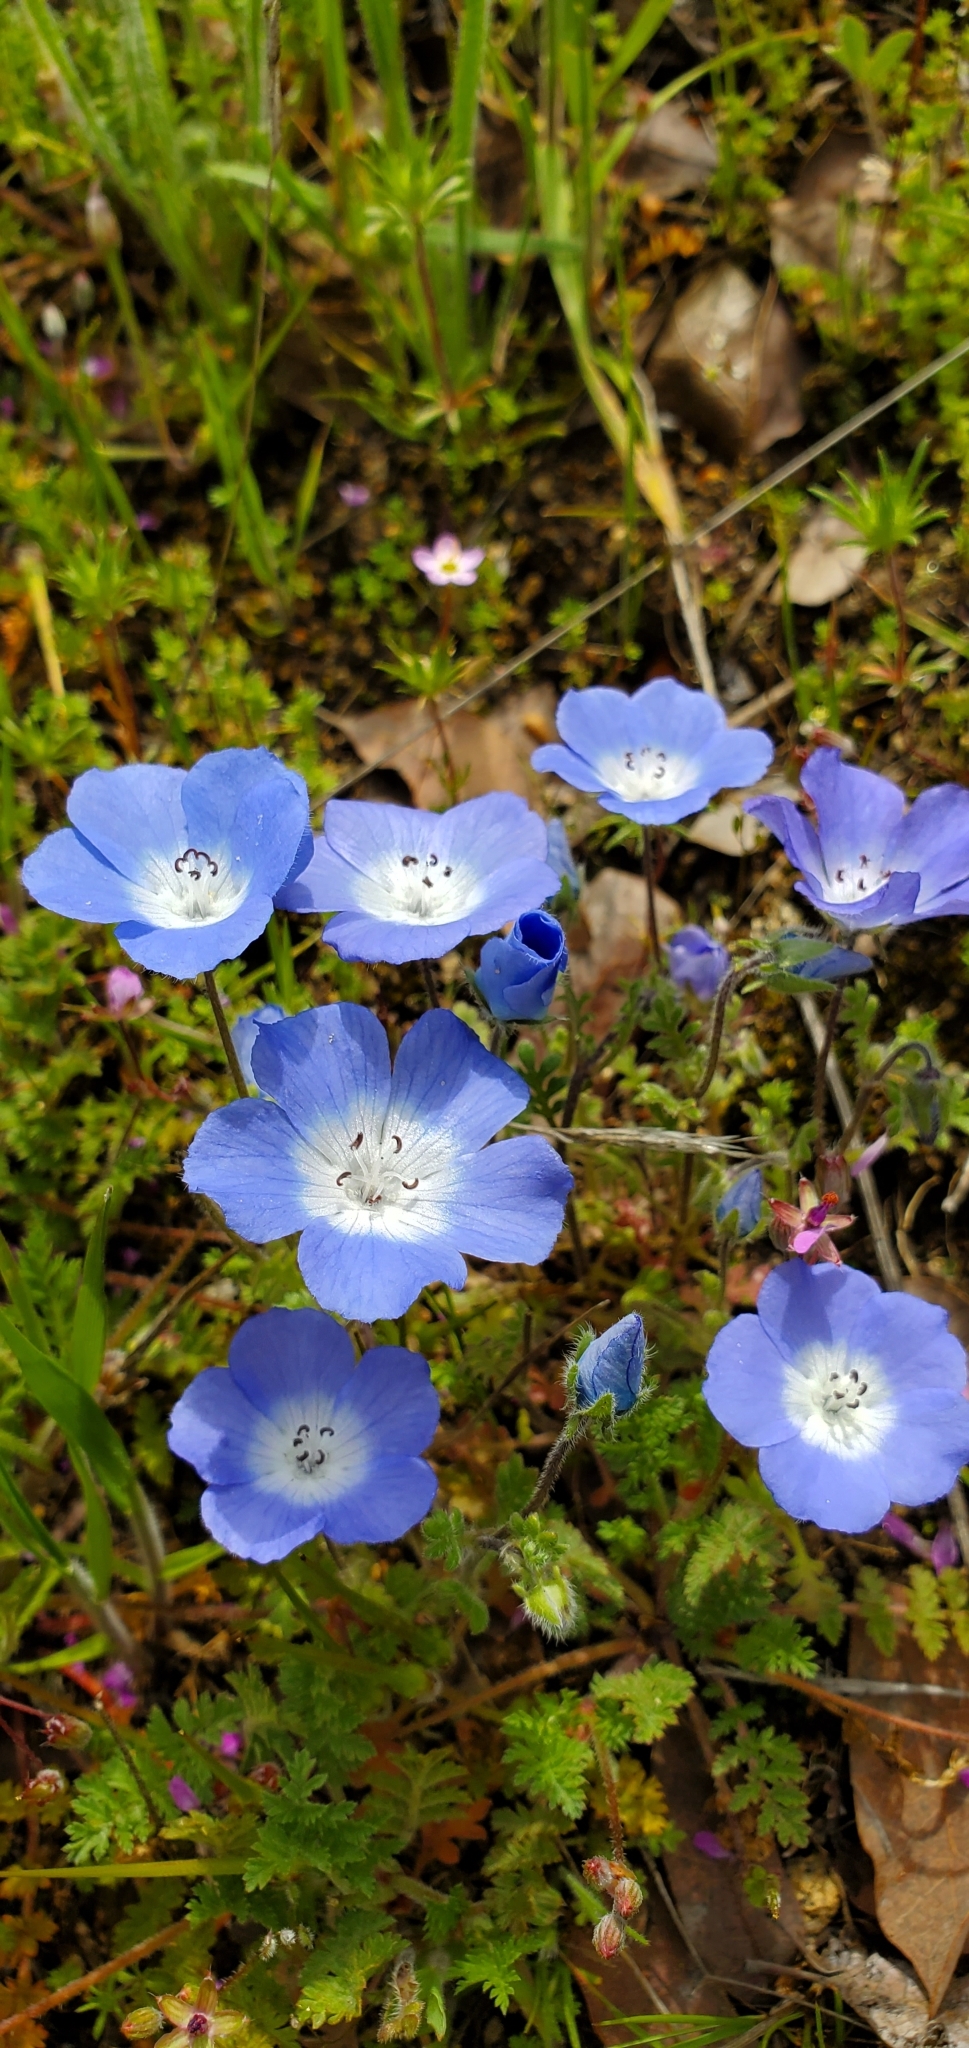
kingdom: Plantae
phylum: Tracheophyta
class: Magnoliopsida
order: Boraginales
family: Hydrophyllaceae
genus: Nemophila
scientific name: Nemophila menziesii
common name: Baby's-blue-eyes
